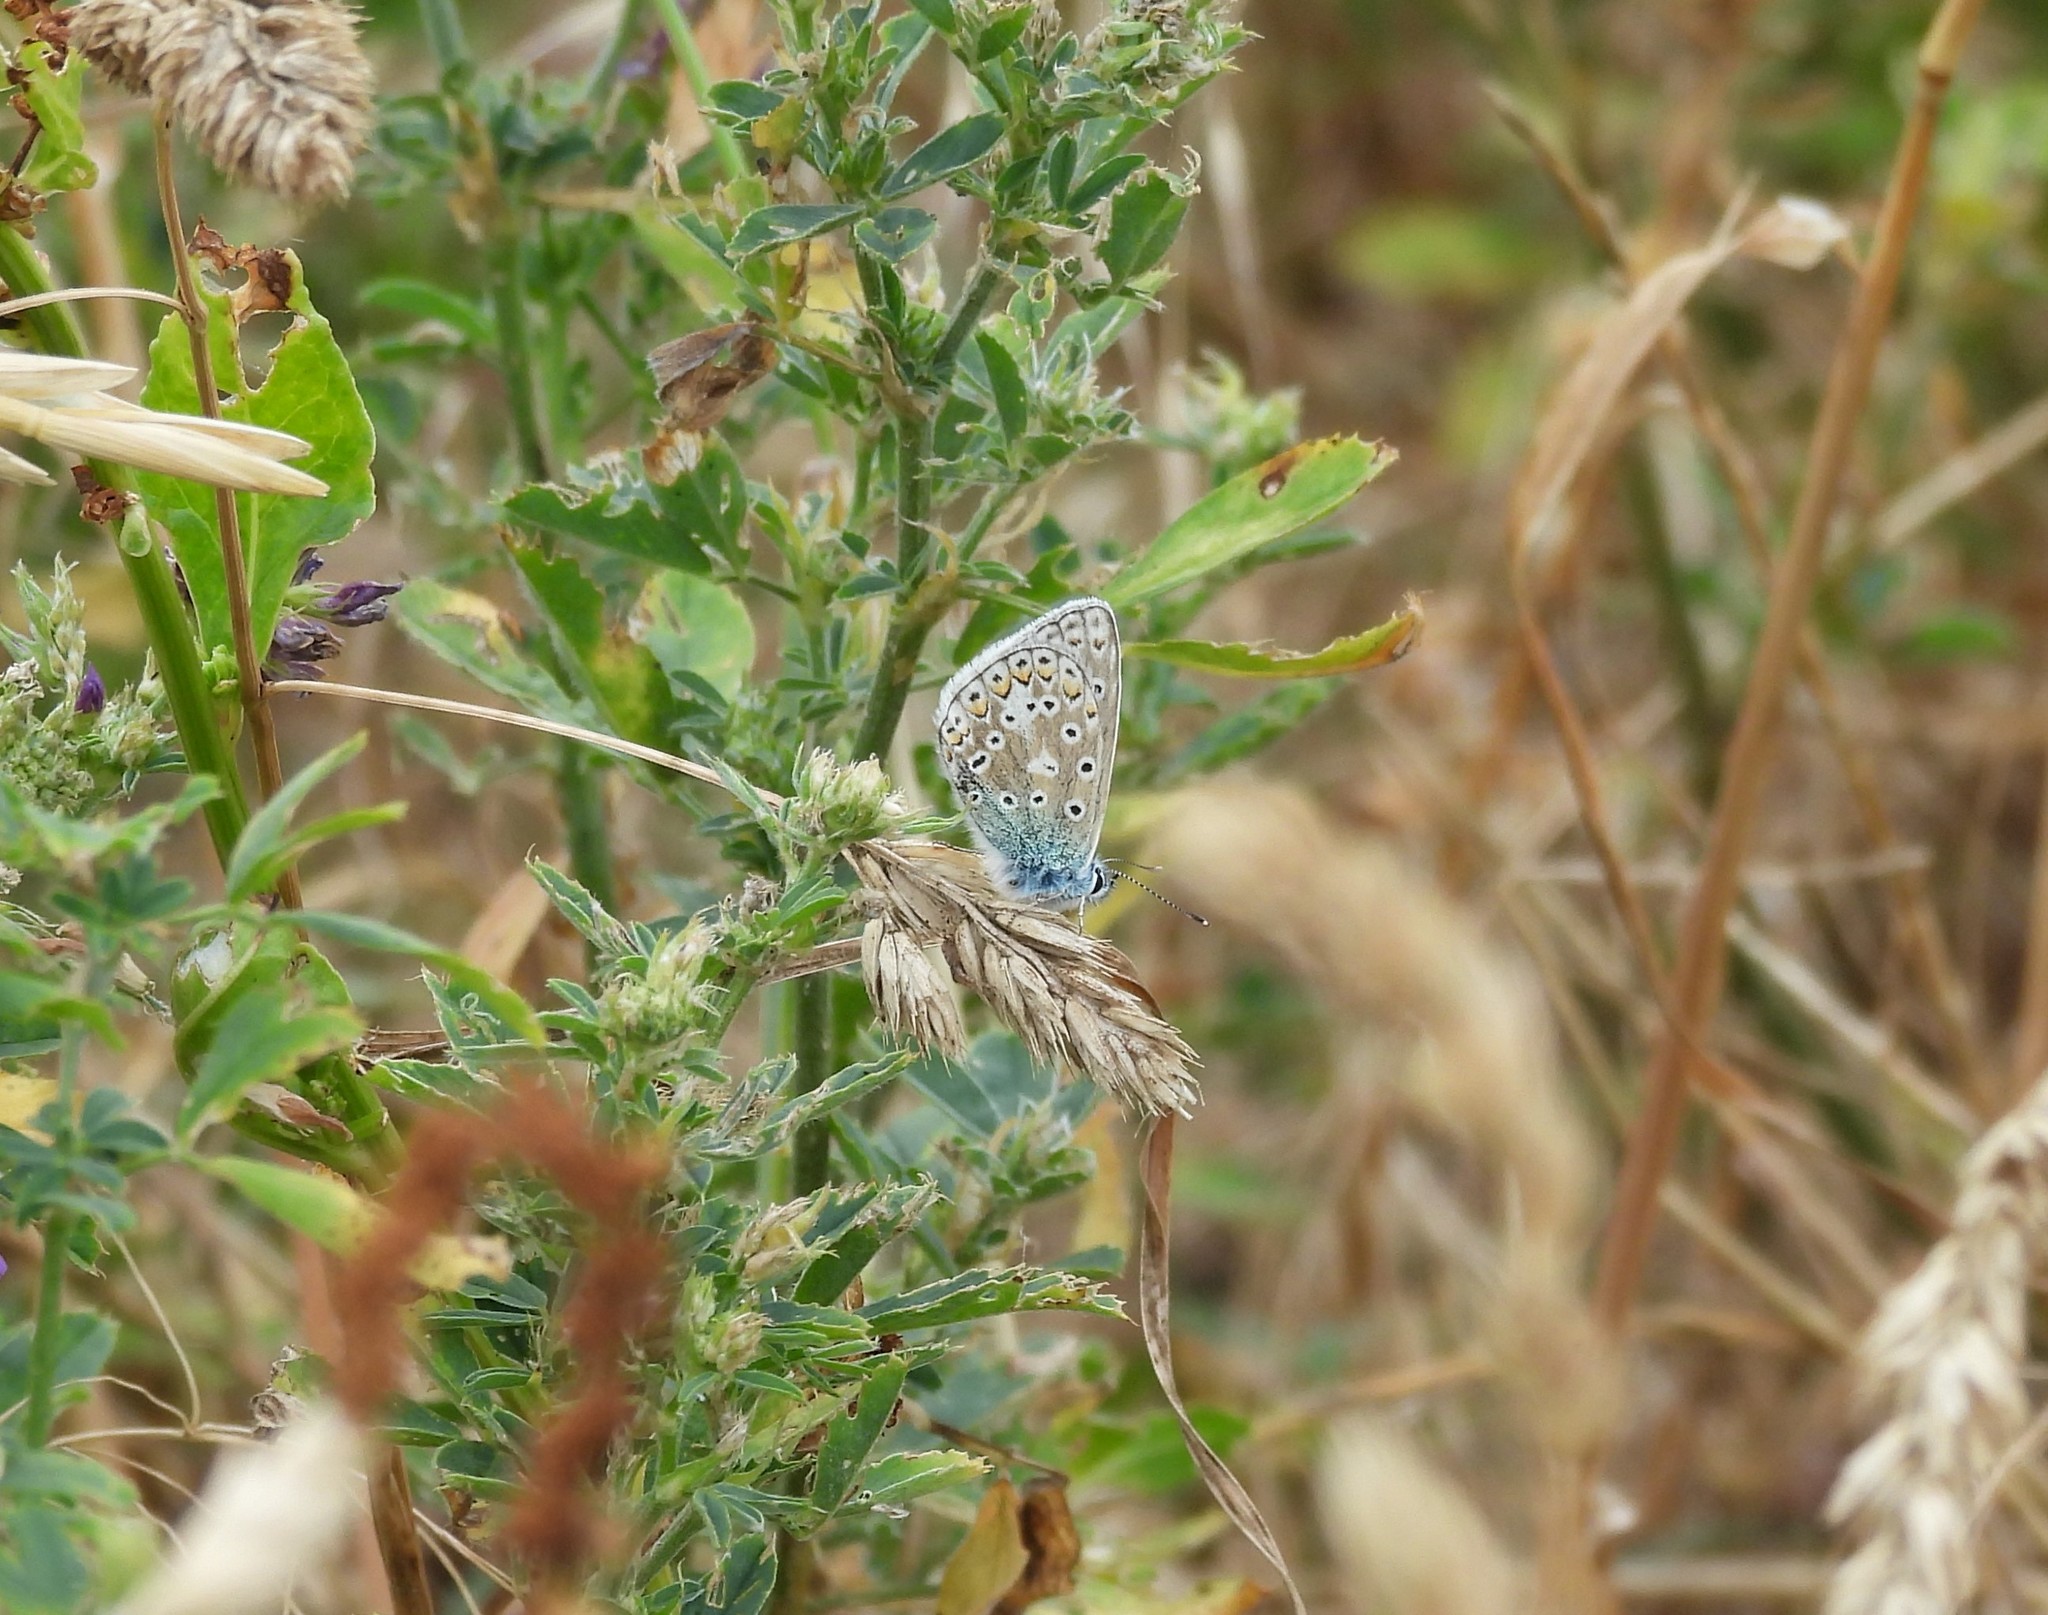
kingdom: Animalia
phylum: Arthropoda
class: Insecta
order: Lepidoptera
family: Lycaenidae
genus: Polyommatus
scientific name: Polyommatus icarus
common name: Common blue
